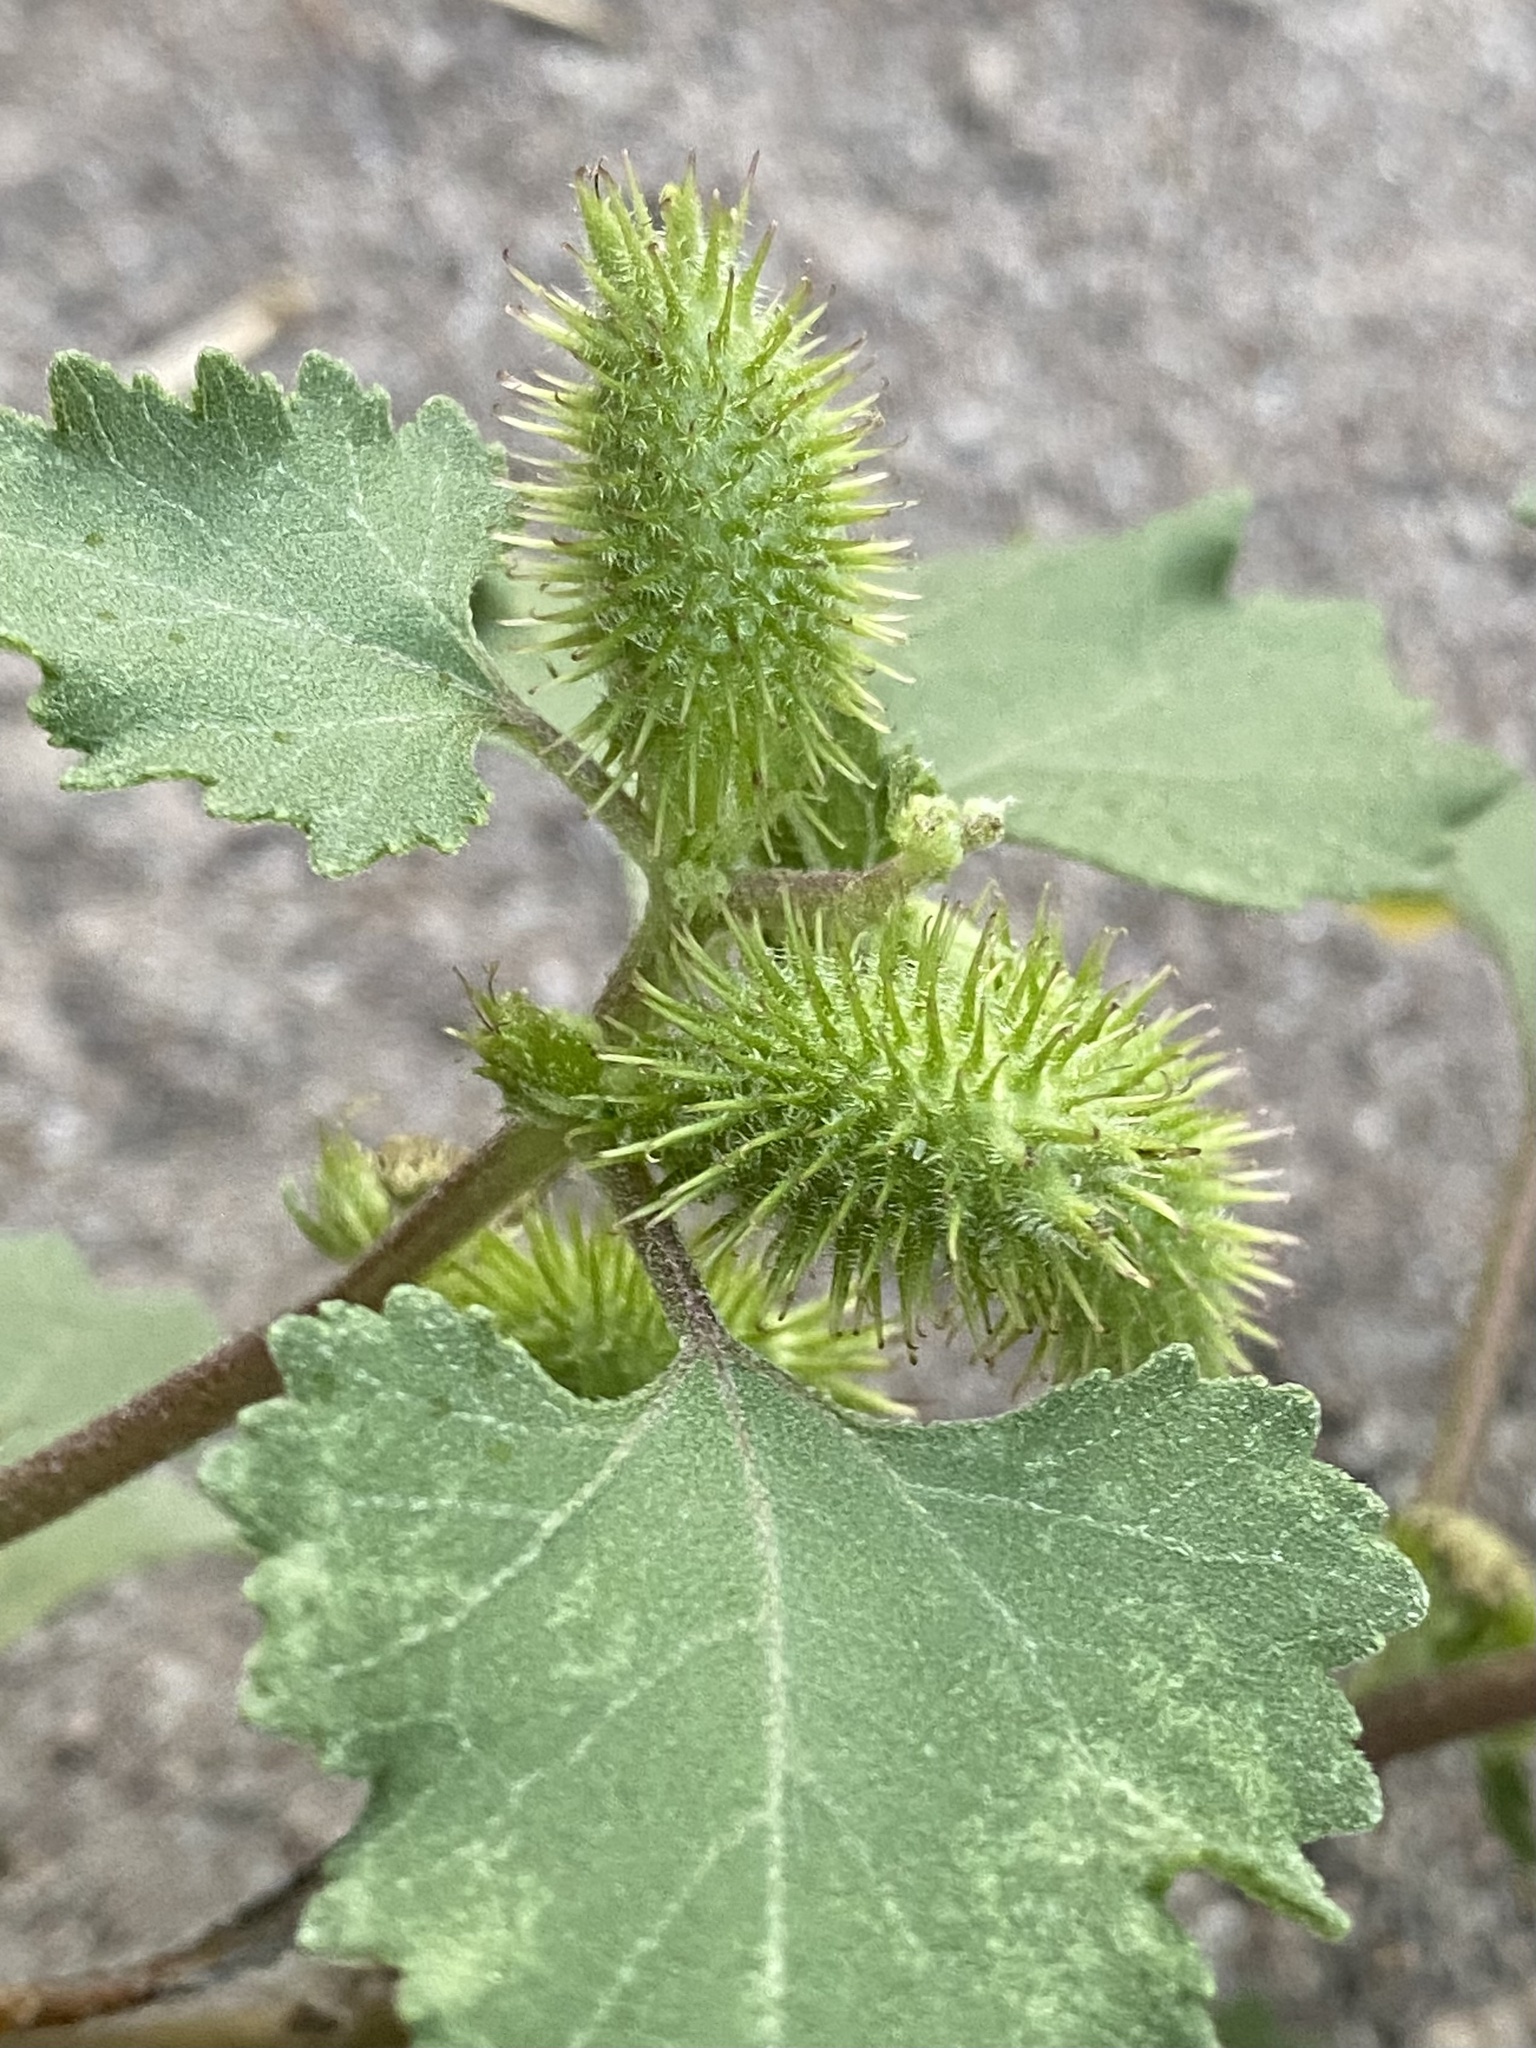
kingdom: Plantae
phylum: Tracheophyta
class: Magnoliopsida
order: Asterales
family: Asteraceae
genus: Xanthium
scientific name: Xanthium strumarium
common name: Rough cocklebur
